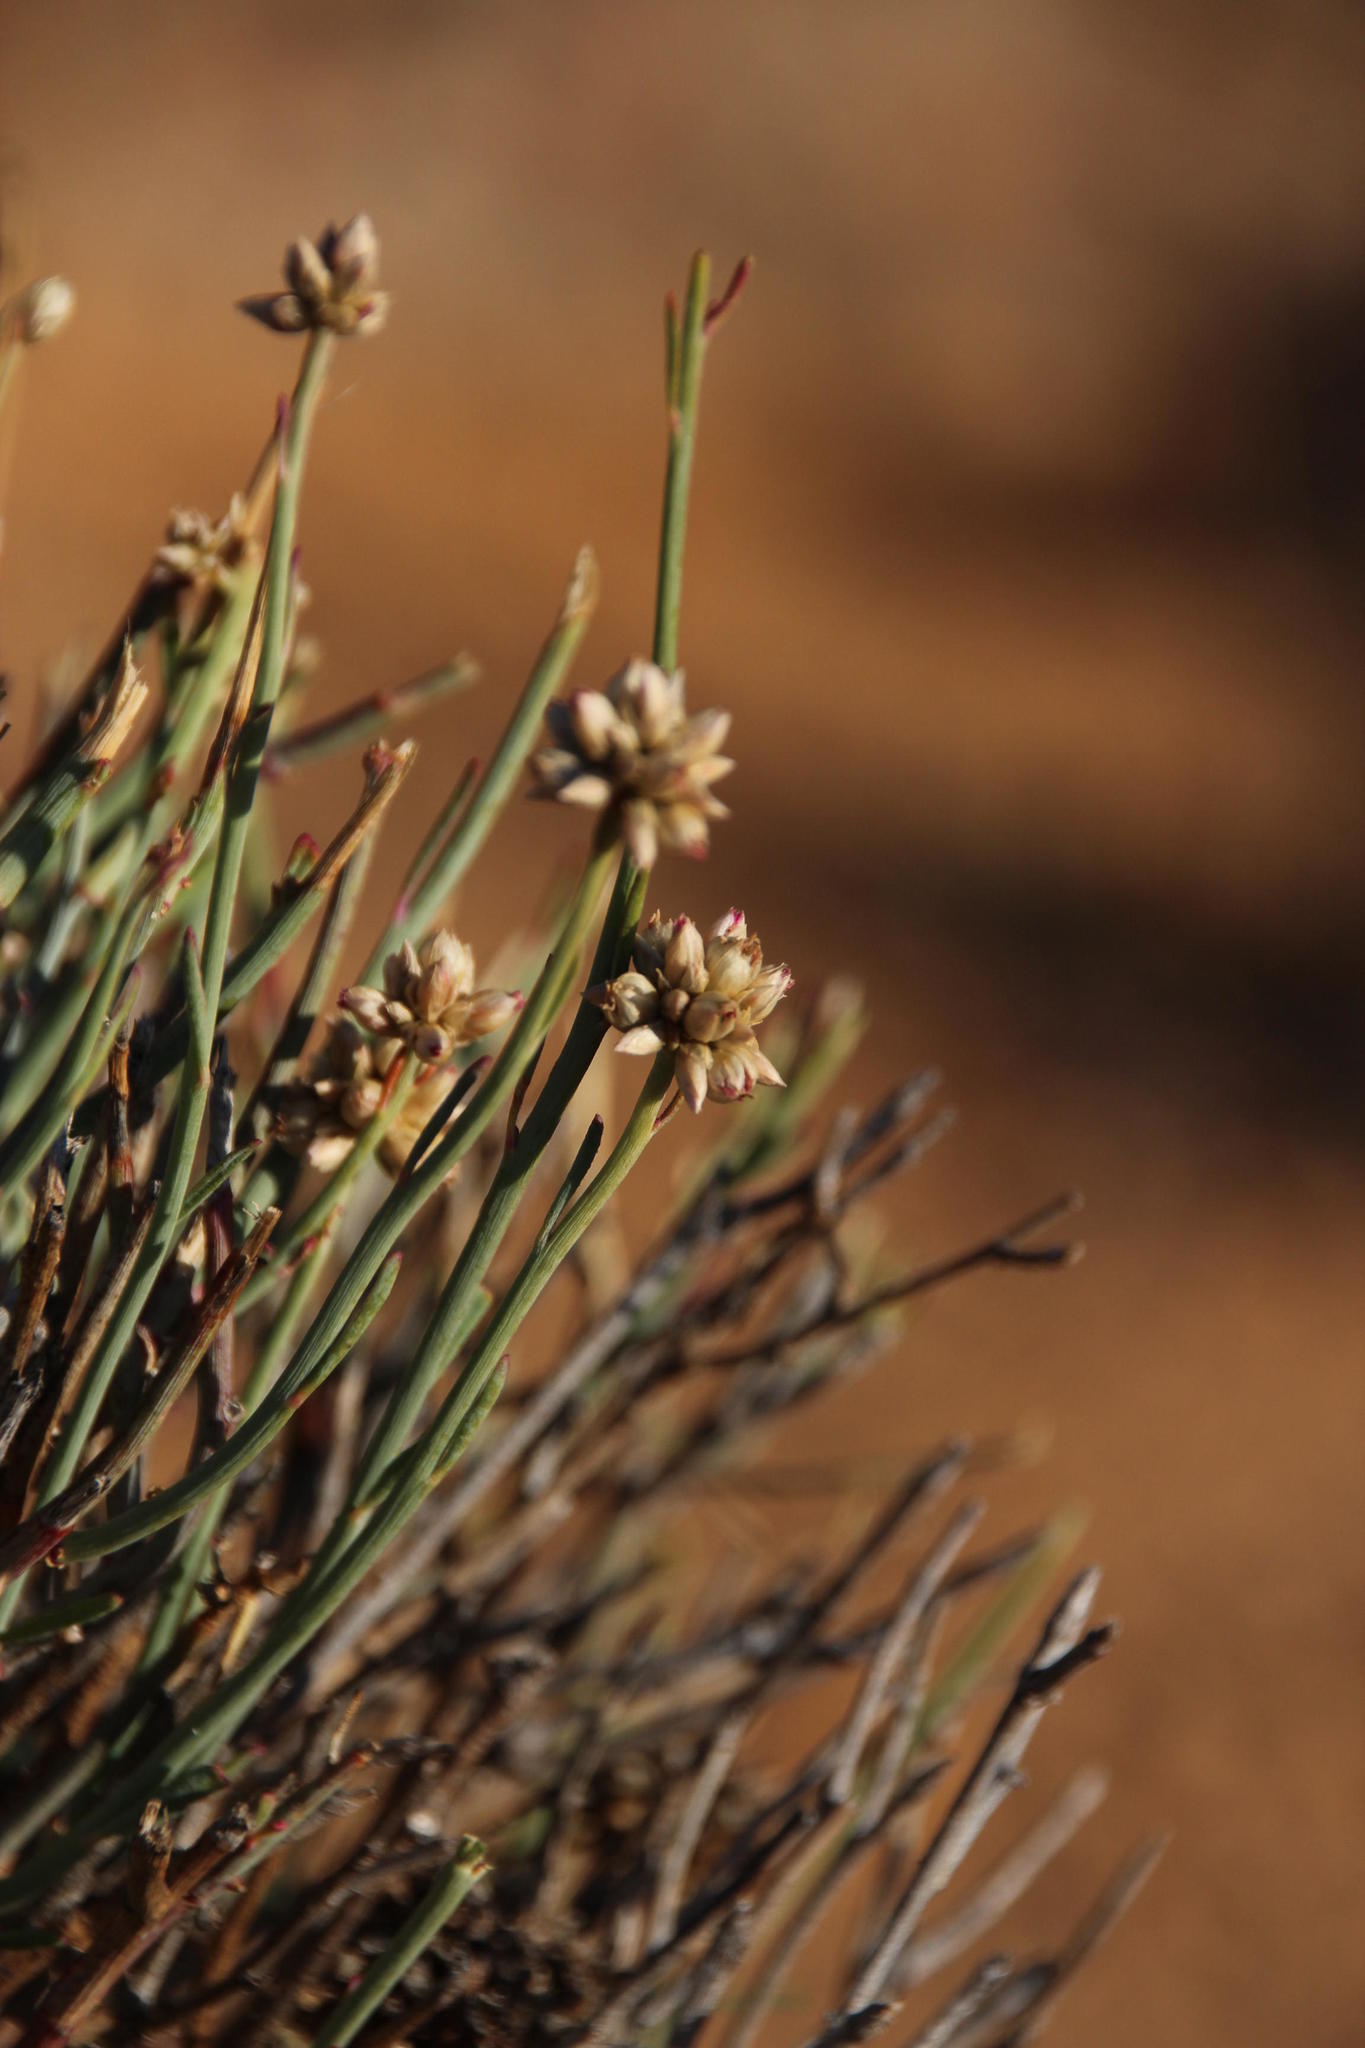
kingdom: Plantae
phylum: Tracheophyta
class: Magnoliopsida
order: Caryophyllales
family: Amaranthaceae
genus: Hermbstaedtia
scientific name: Hermbstaedtia glauca
